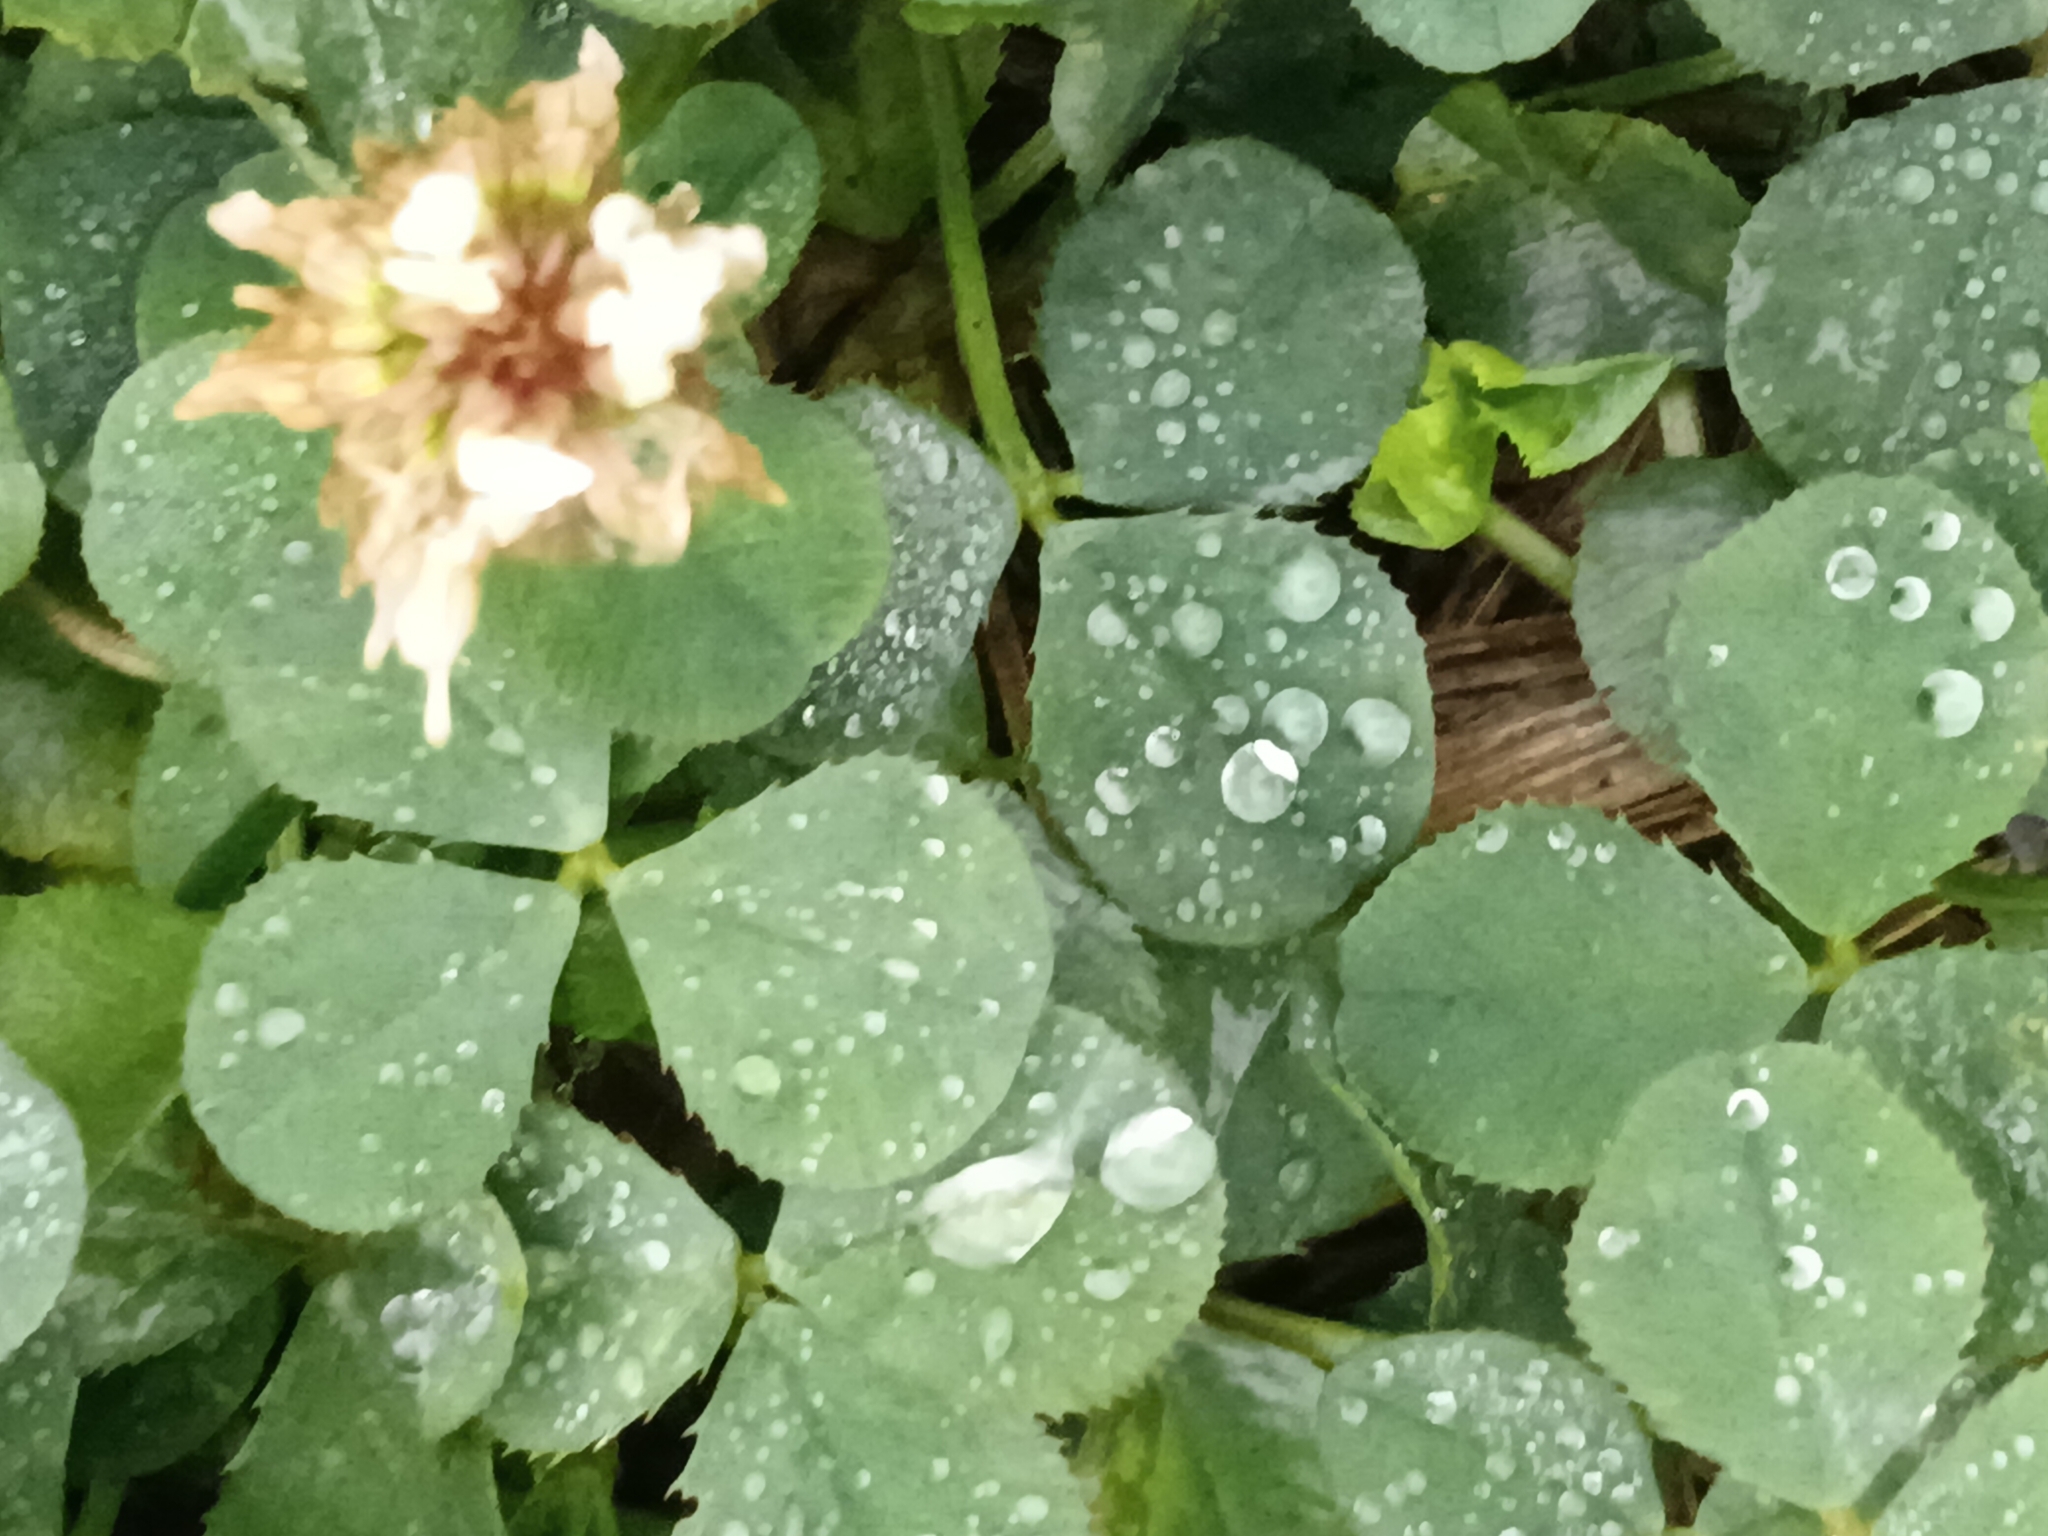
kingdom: Plantae
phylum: Tracheophyta
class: Magnoliopsida
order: Fabales
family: Fabaceae
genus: Trifolium
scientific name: Trifolium repens
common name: White clover
